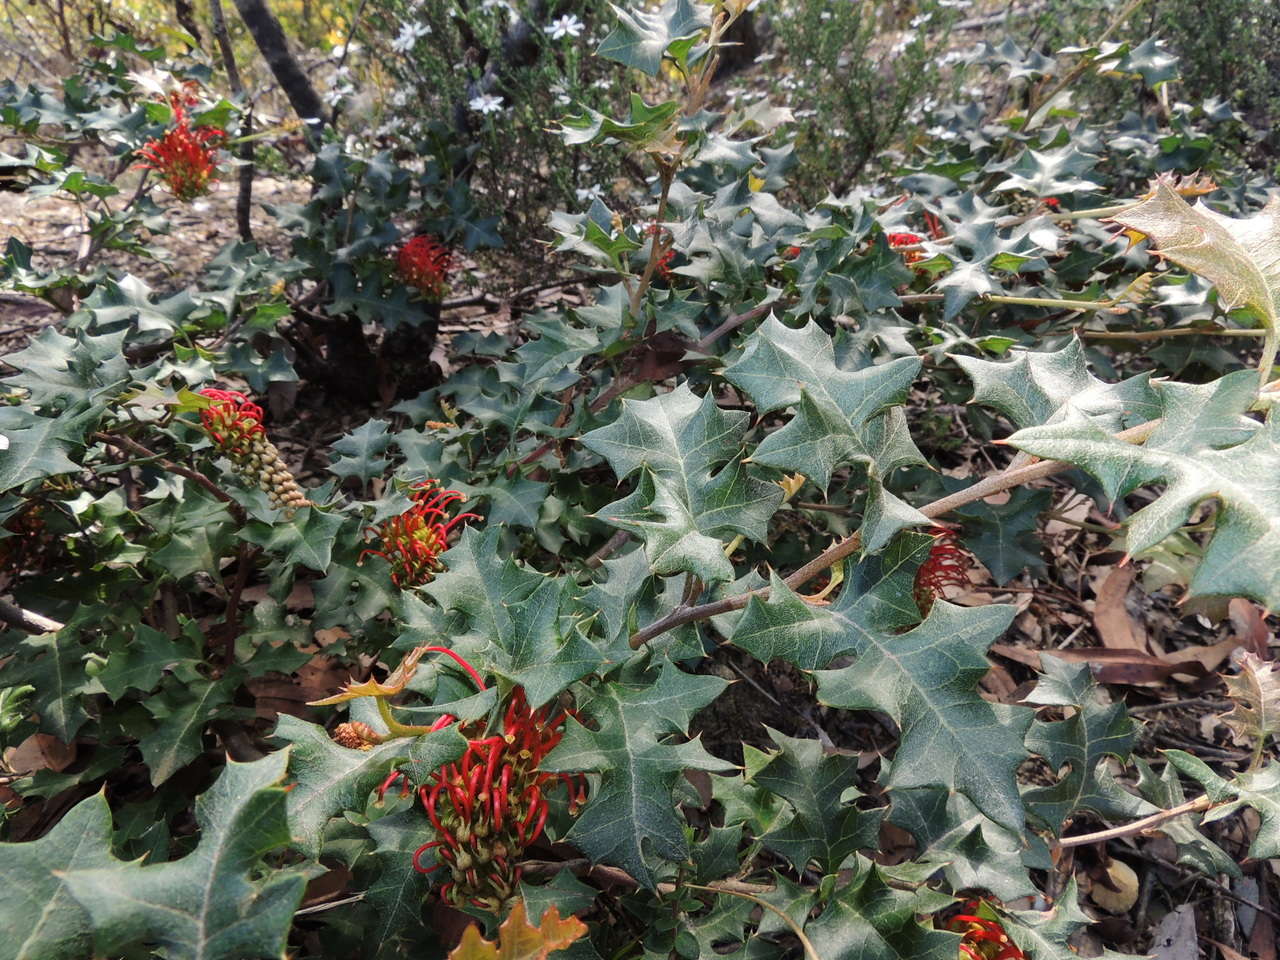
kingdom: Plantae
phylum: Tracheophyta
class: Magnoliopsida
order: Proteales
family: Proteaceae
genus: Grevillea
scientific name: Grevillea steiglitziana
